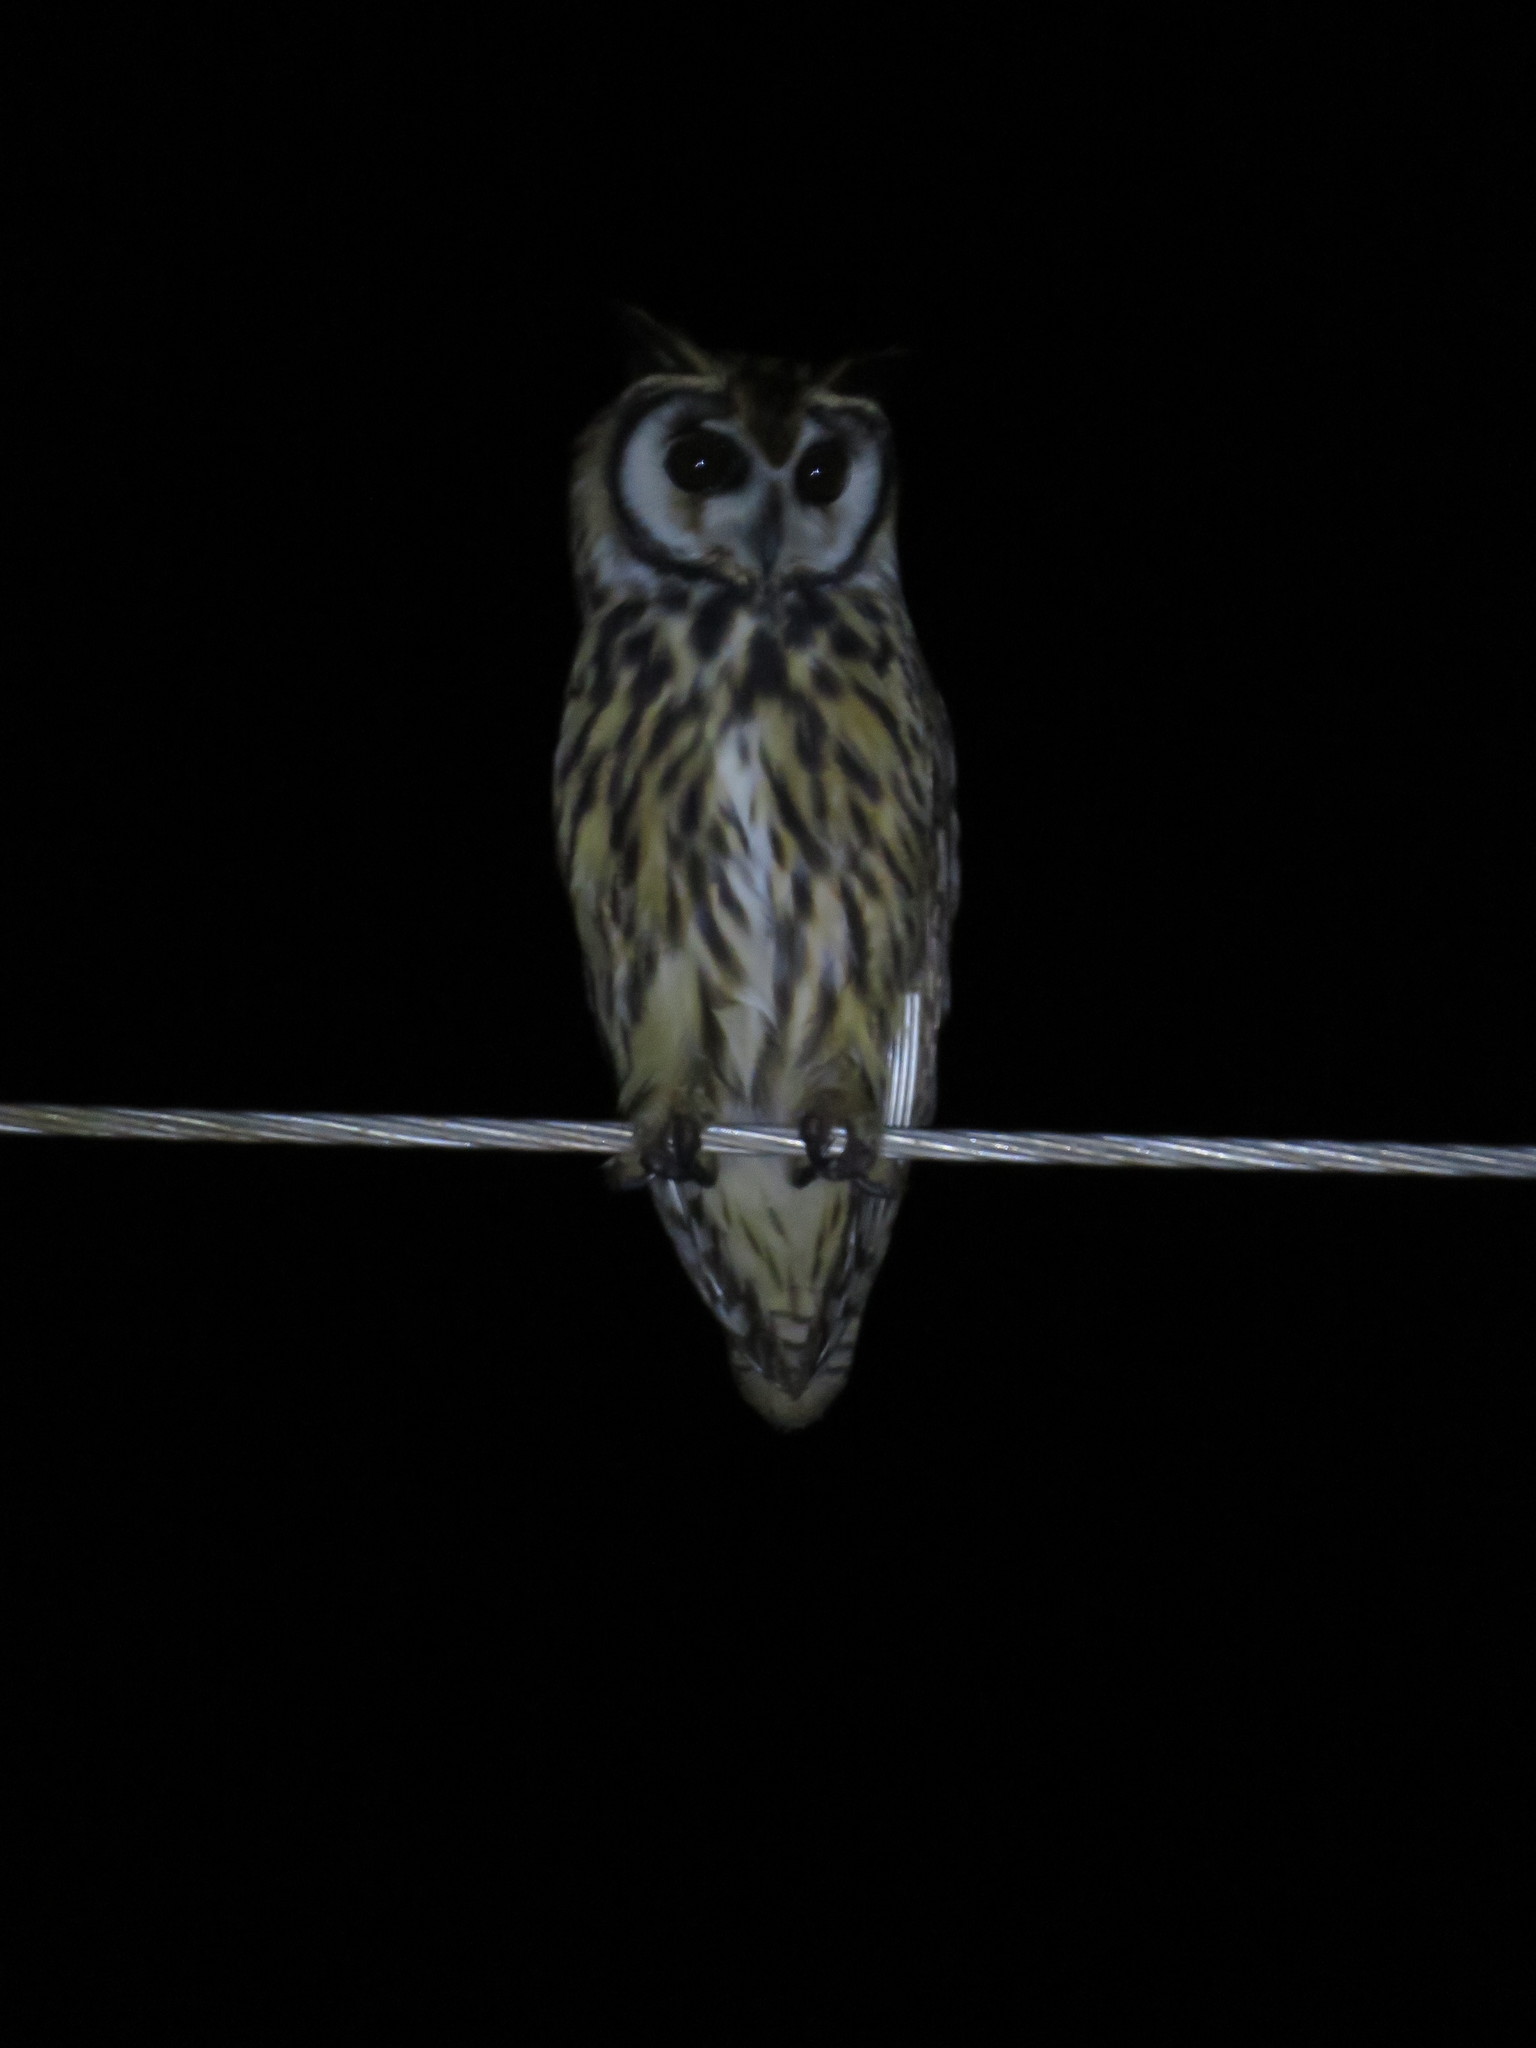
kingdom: Animalia
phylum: Chordata
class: Aves
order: Strigiformes
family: Strigidae
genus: Pseudoscops
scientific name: Pseudoscops clamator
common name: Striped owl
